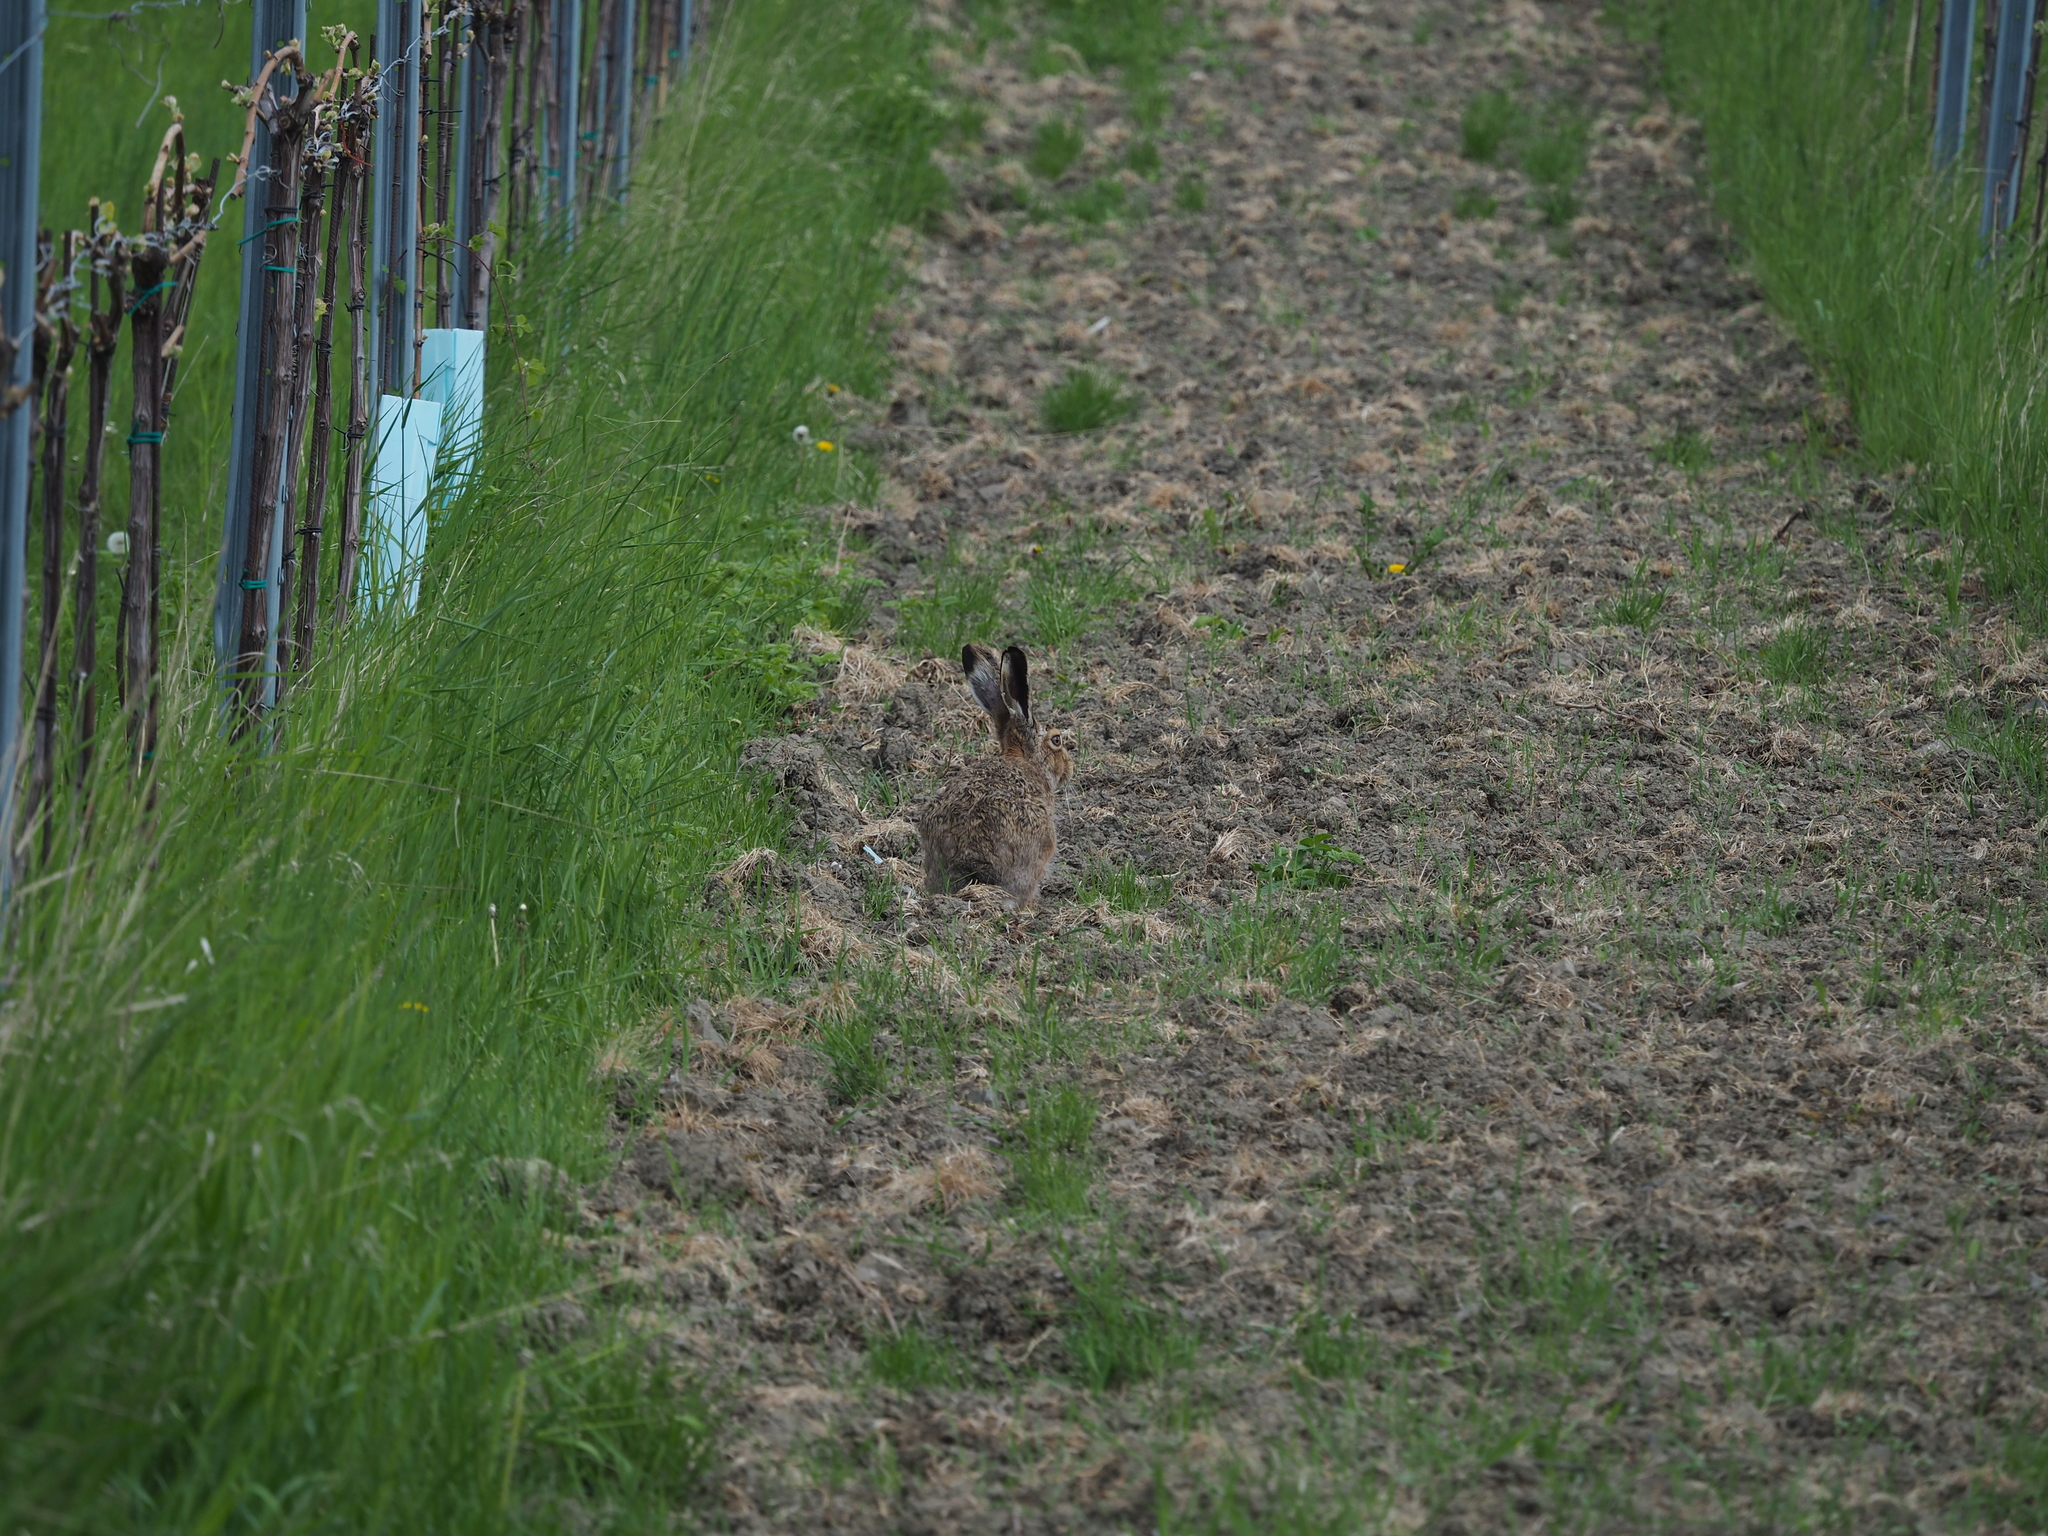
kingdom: Animalia
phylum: Chordata
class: Mammalia
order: Lagomorpha
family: Leporidae
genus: Lepus
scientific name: Lepus europaeus
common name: European hare
